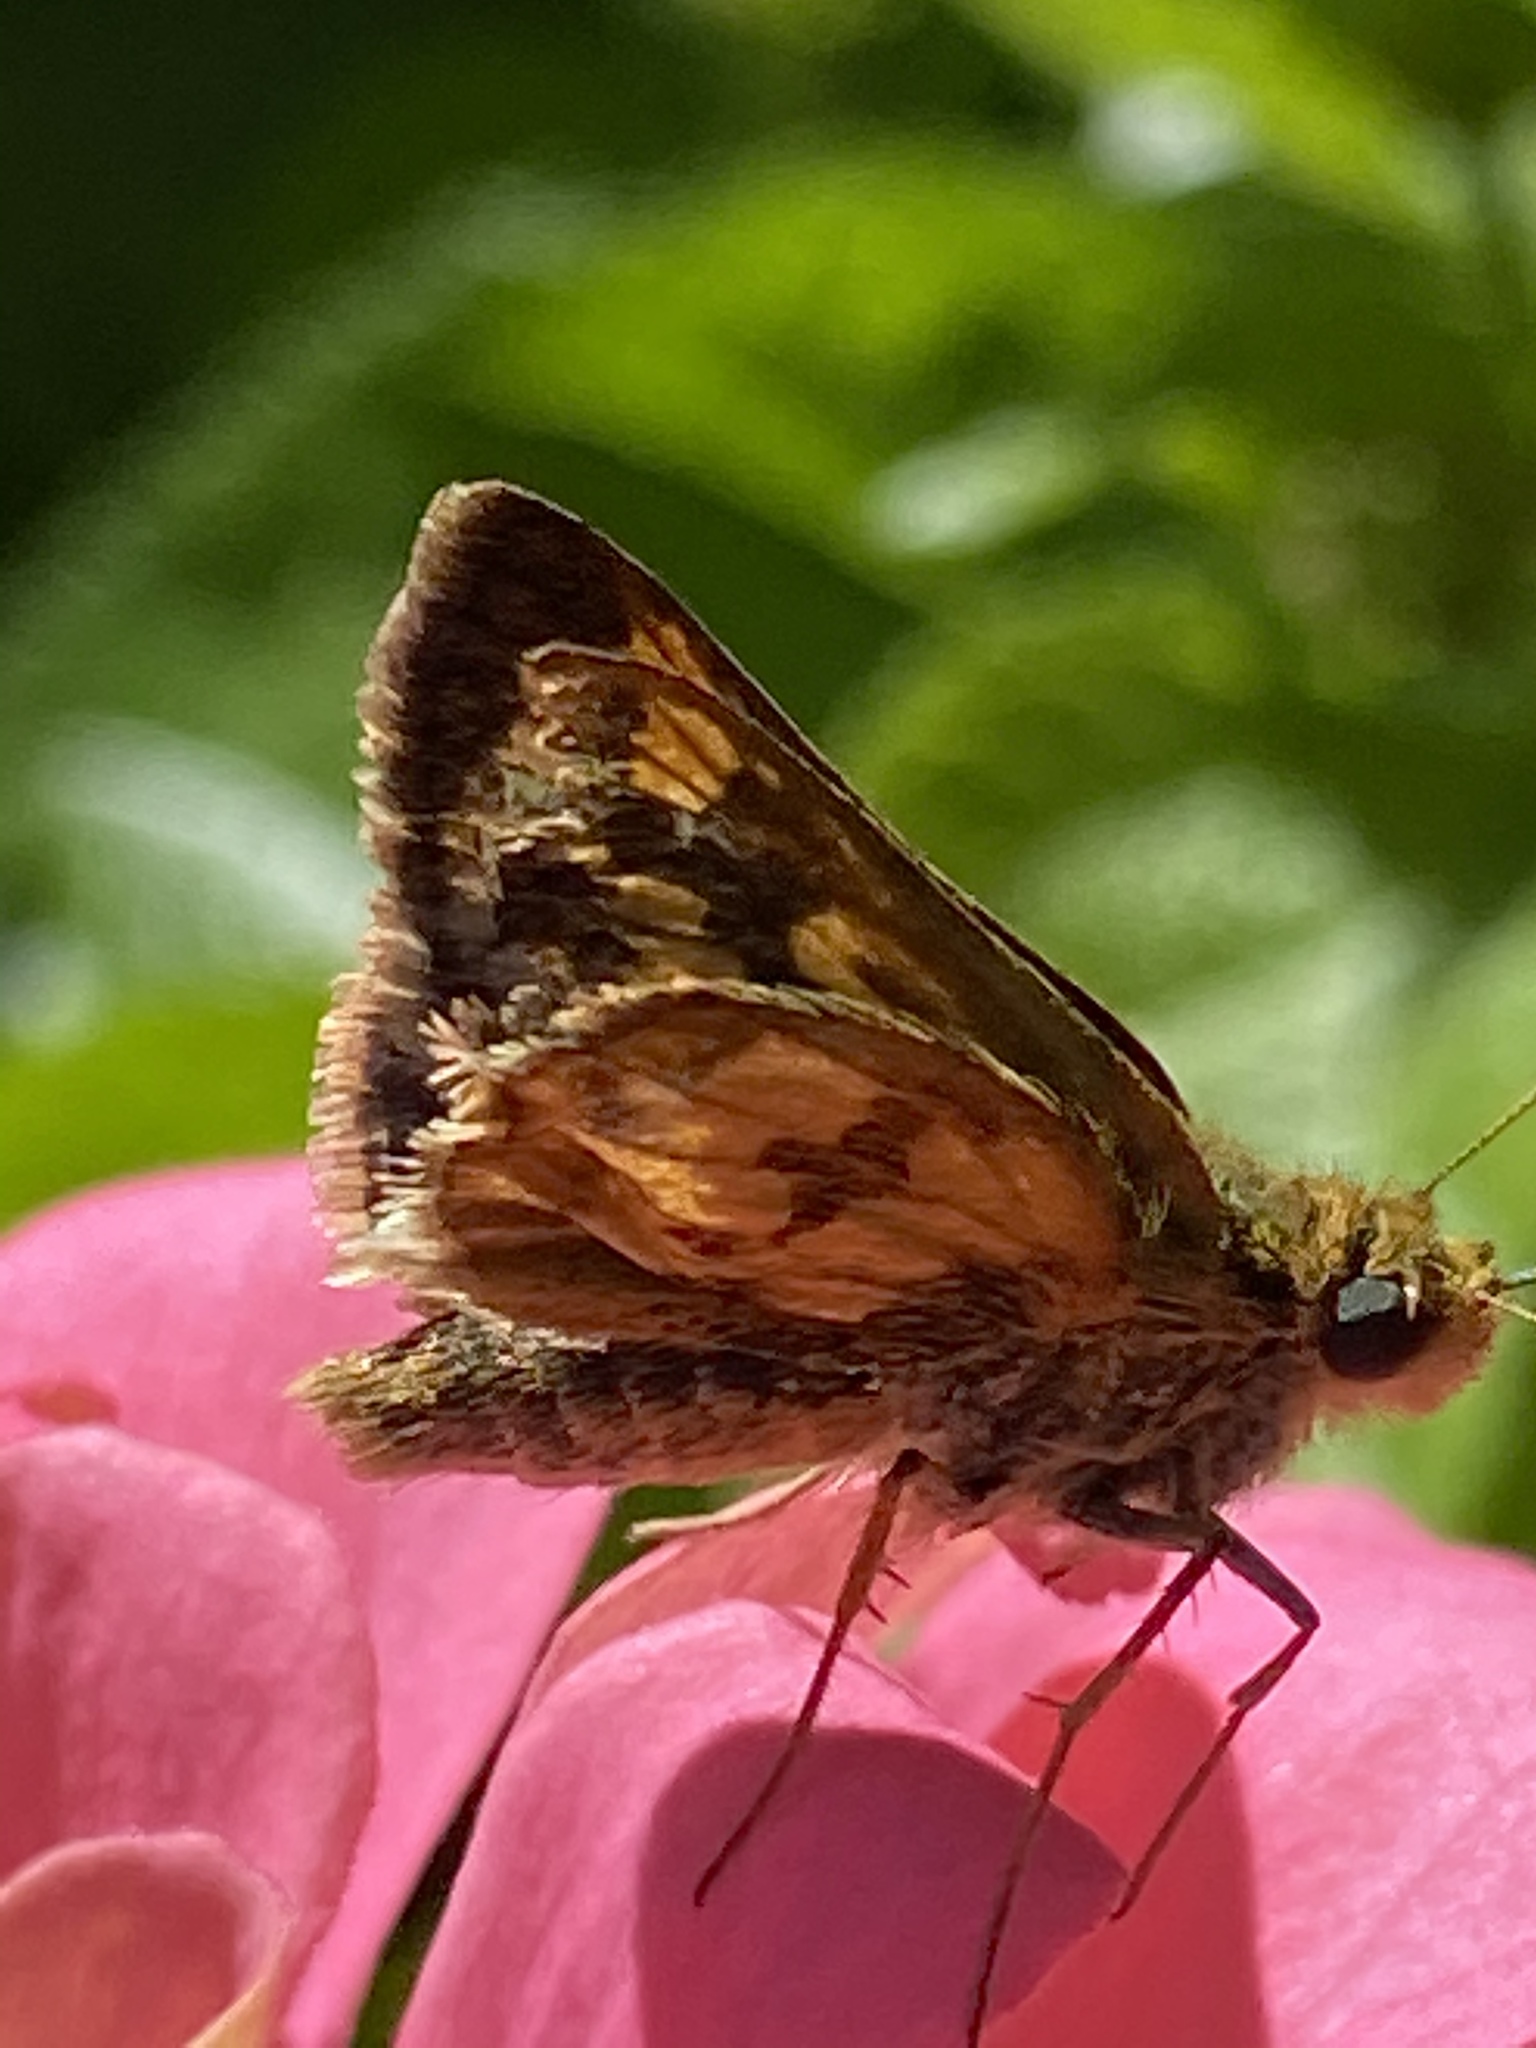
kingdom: Animalia
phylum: Arthropoda
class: Insecta
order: Lepidoptera
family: Hesperiidae
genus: Polites
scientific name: Polites coras
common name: Peck's skipper
